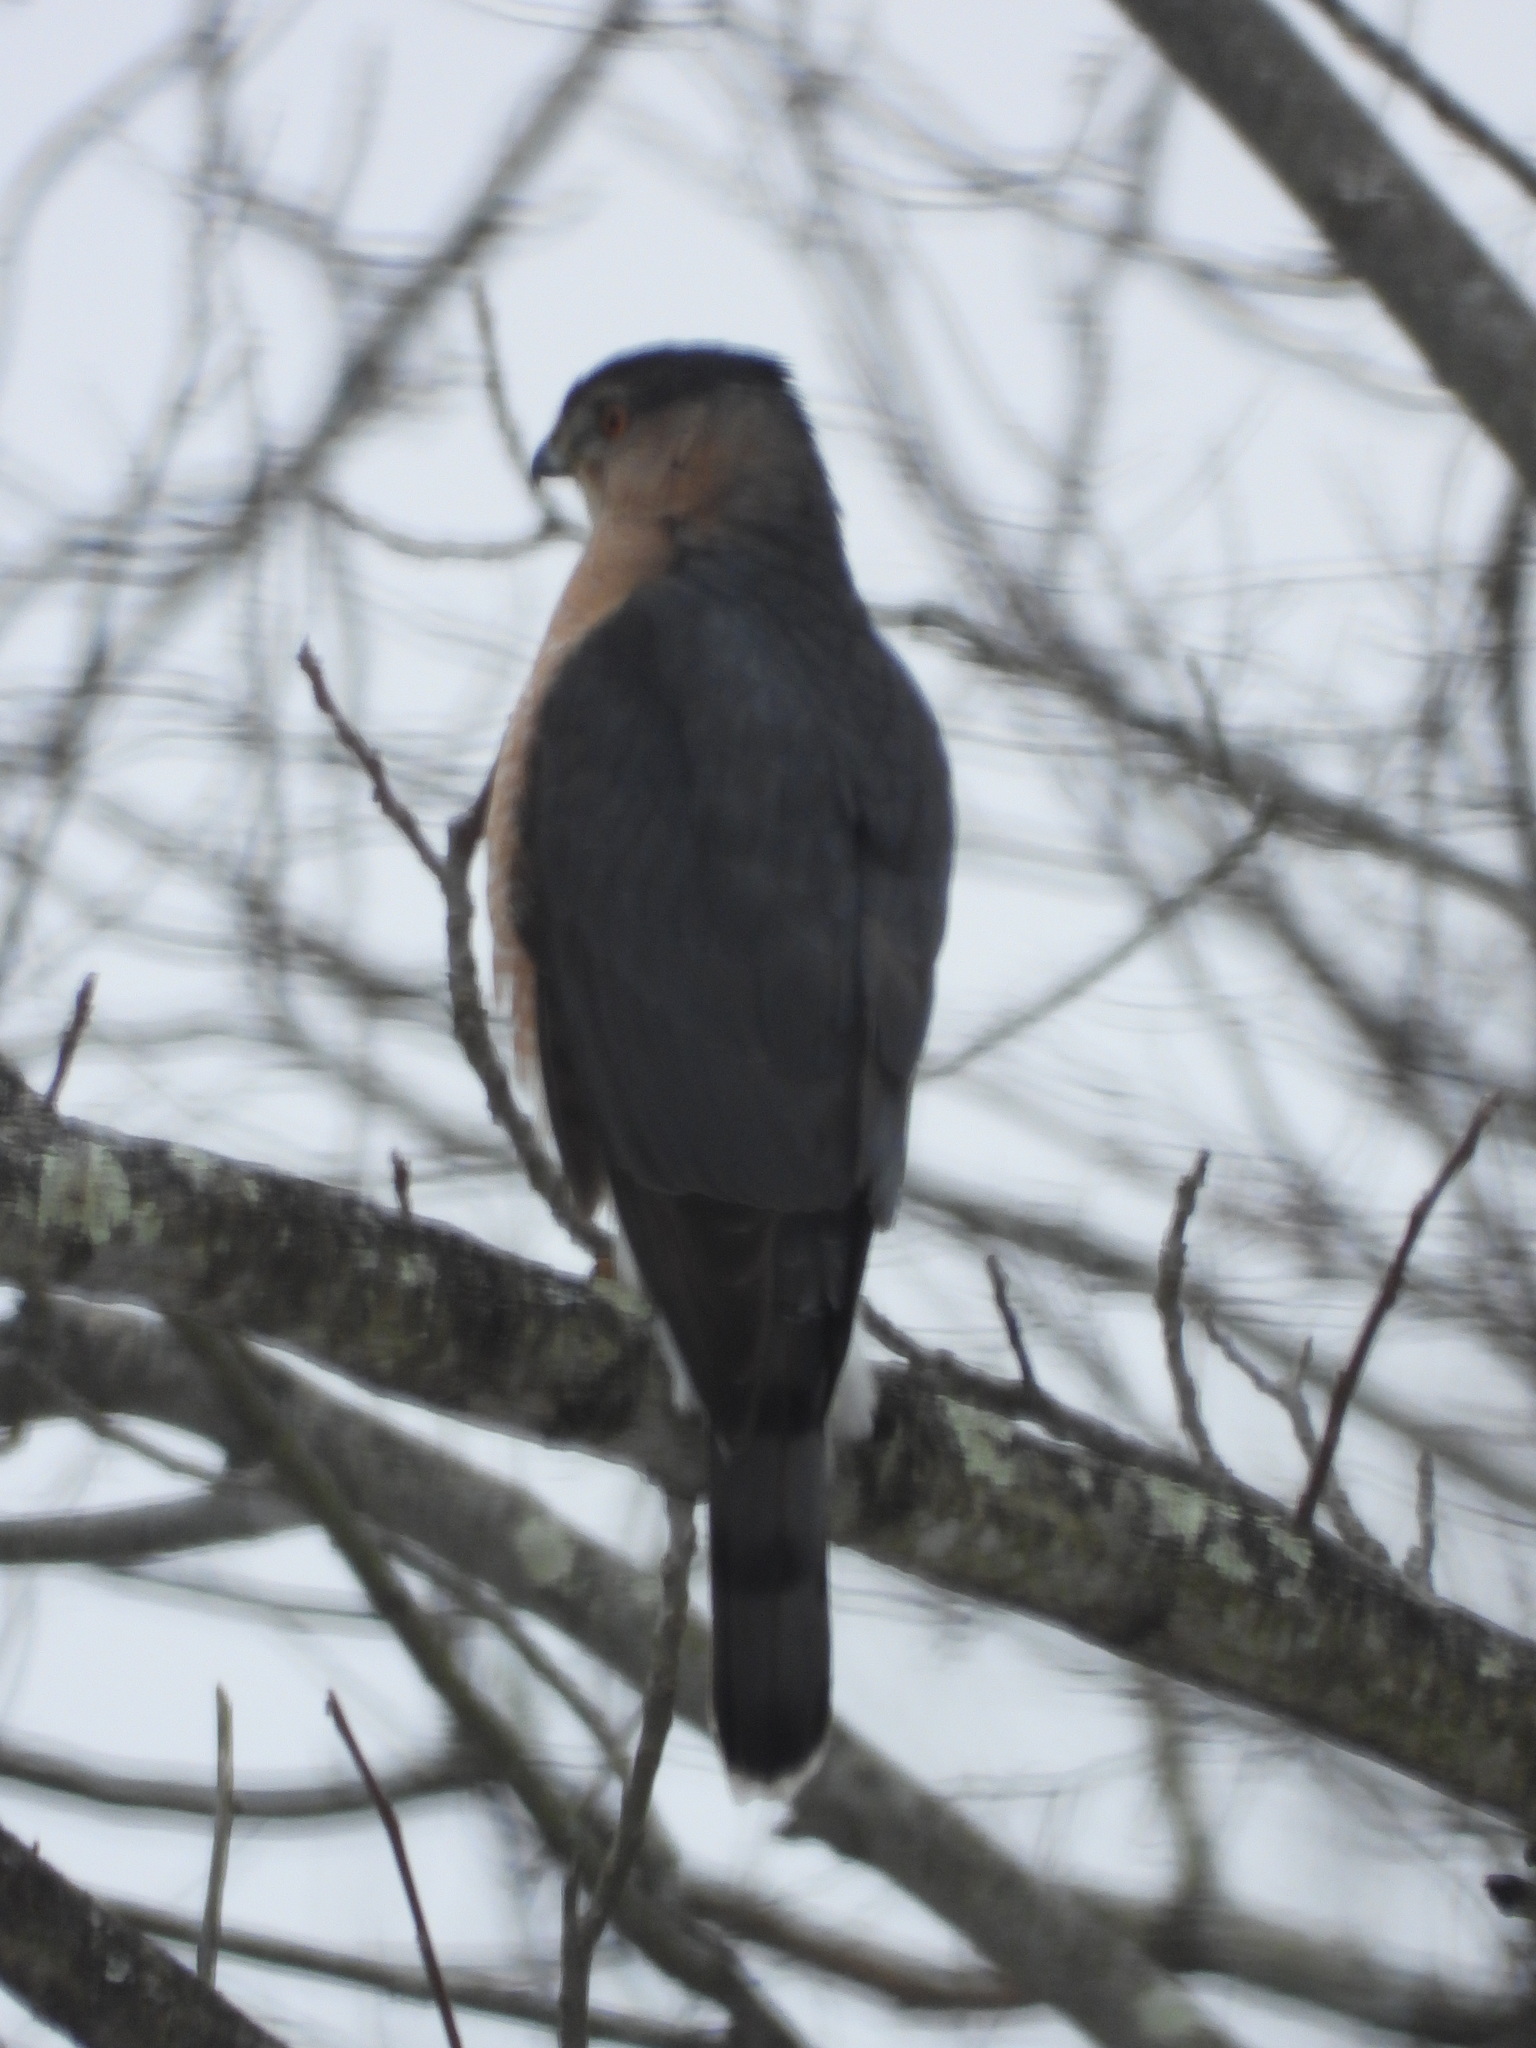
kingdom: Animalia
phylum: Chordata
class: Aves
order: Accipitriformes
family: Accipitridae
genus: Accipiter
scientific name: Accipiter cooperii
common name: Cooper's hawk
